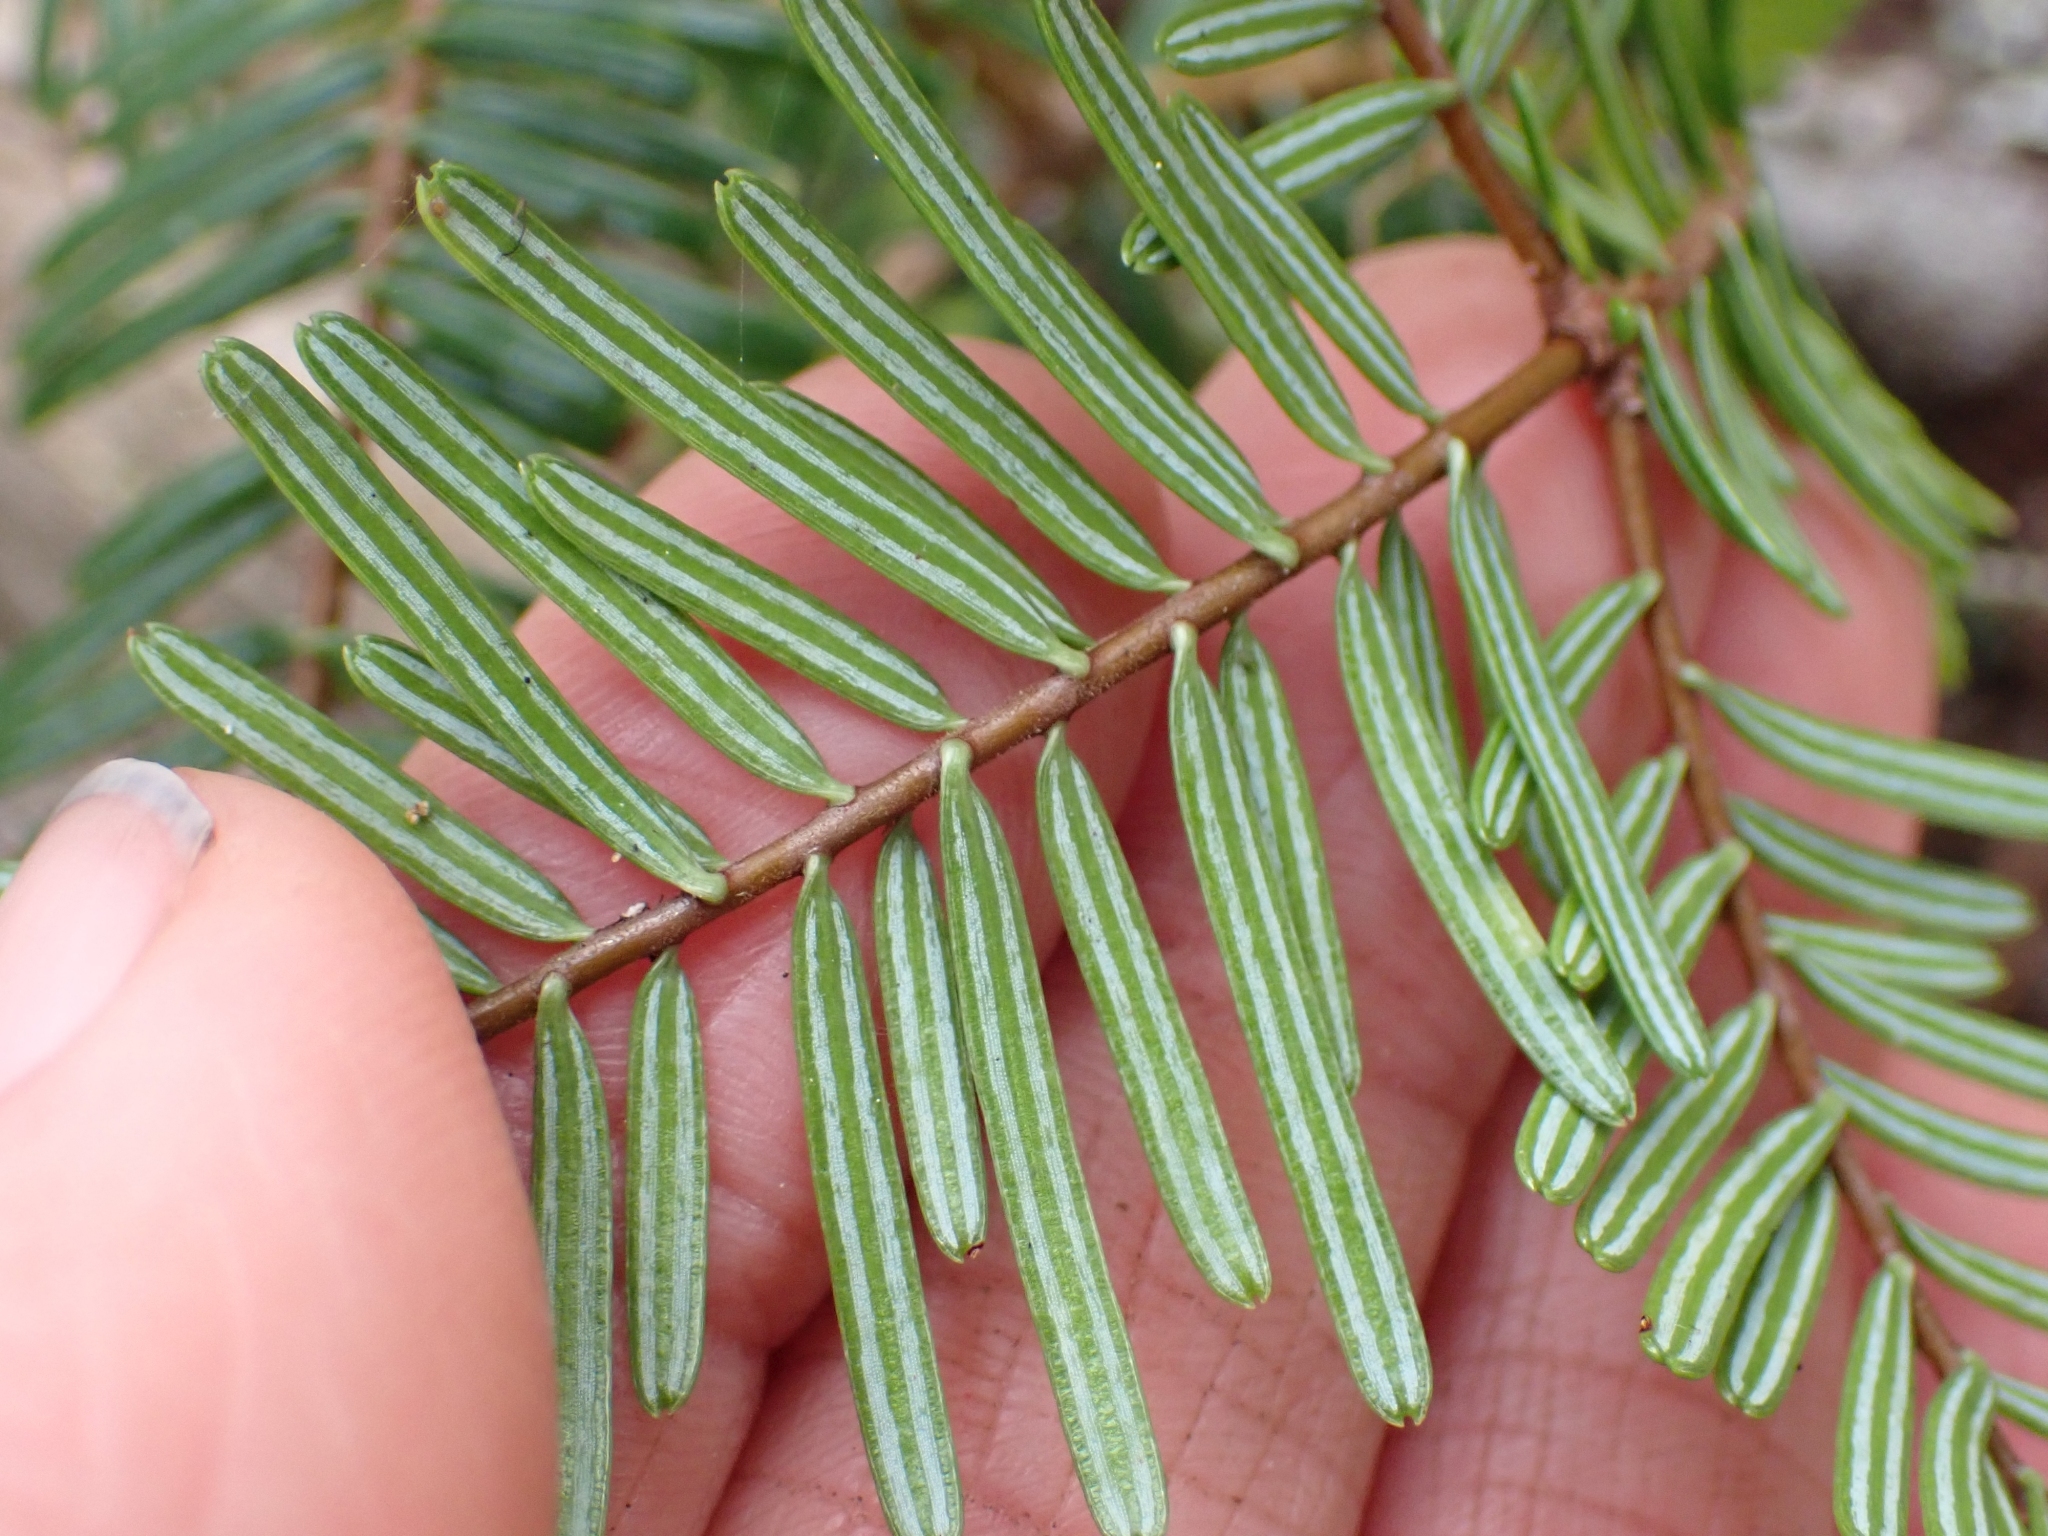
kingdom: Plantae
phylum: Tracheophyta
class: Pinopsida
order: Pinales
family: Pinaceae
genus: Abies
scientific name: Abies grandis
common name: Giant fir
